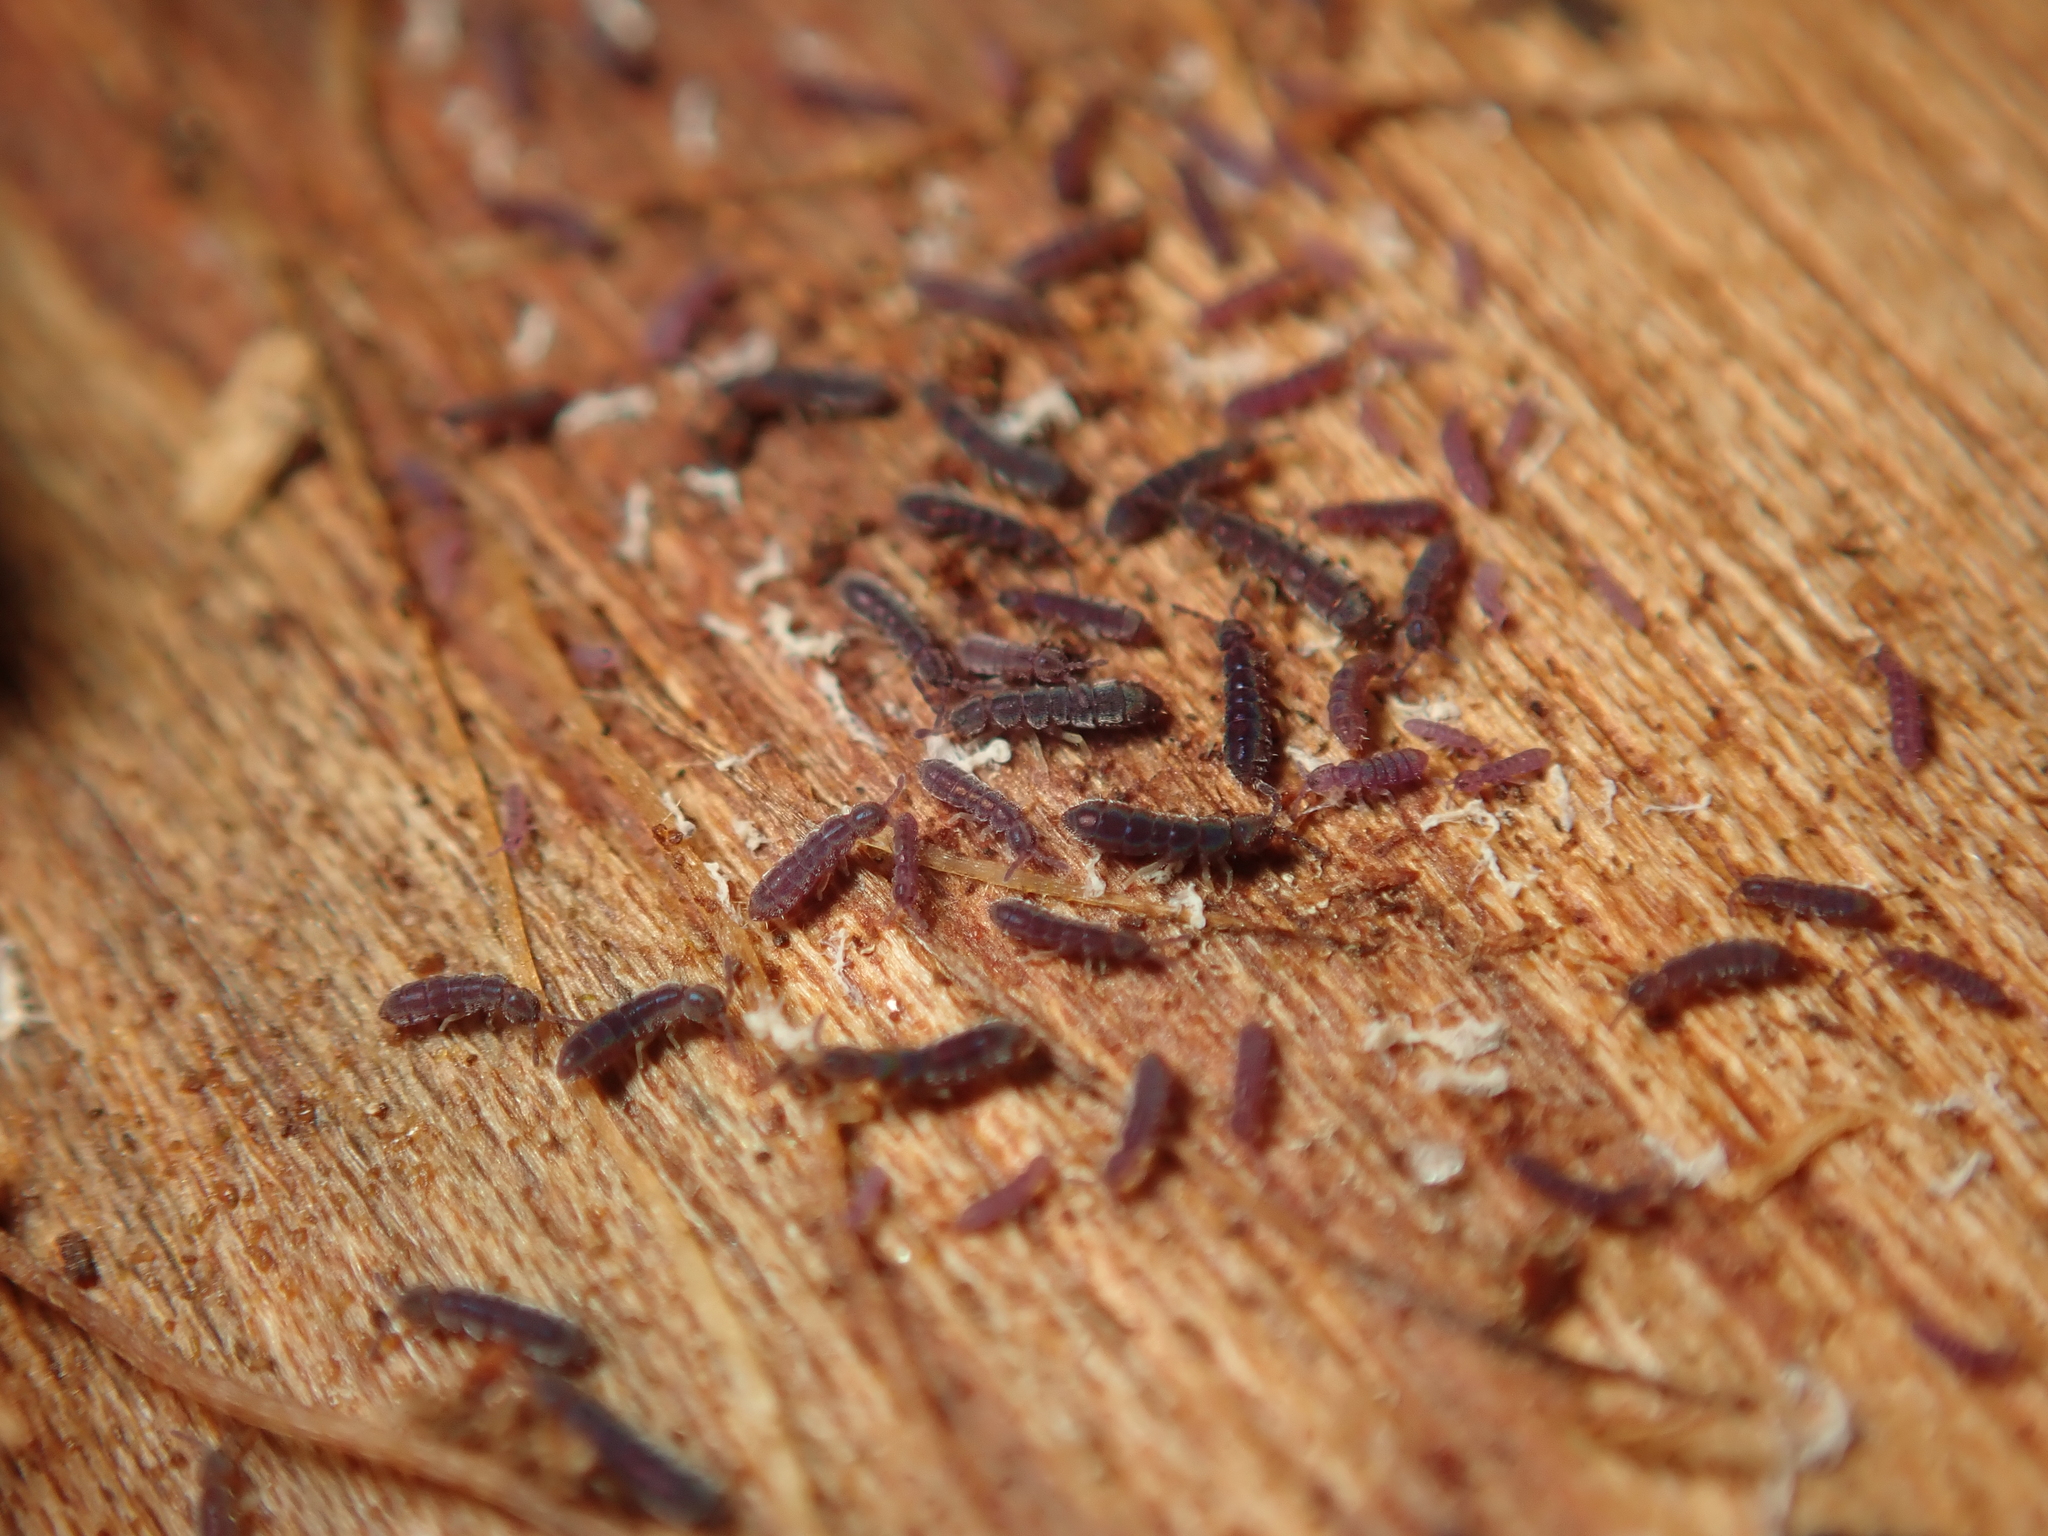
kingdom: Animalia
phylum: Arthropoda
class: Collembola
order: Entomobryomorpha
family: Isotomidae
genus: Vertagopus
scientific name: Vertagopus asiaticus
